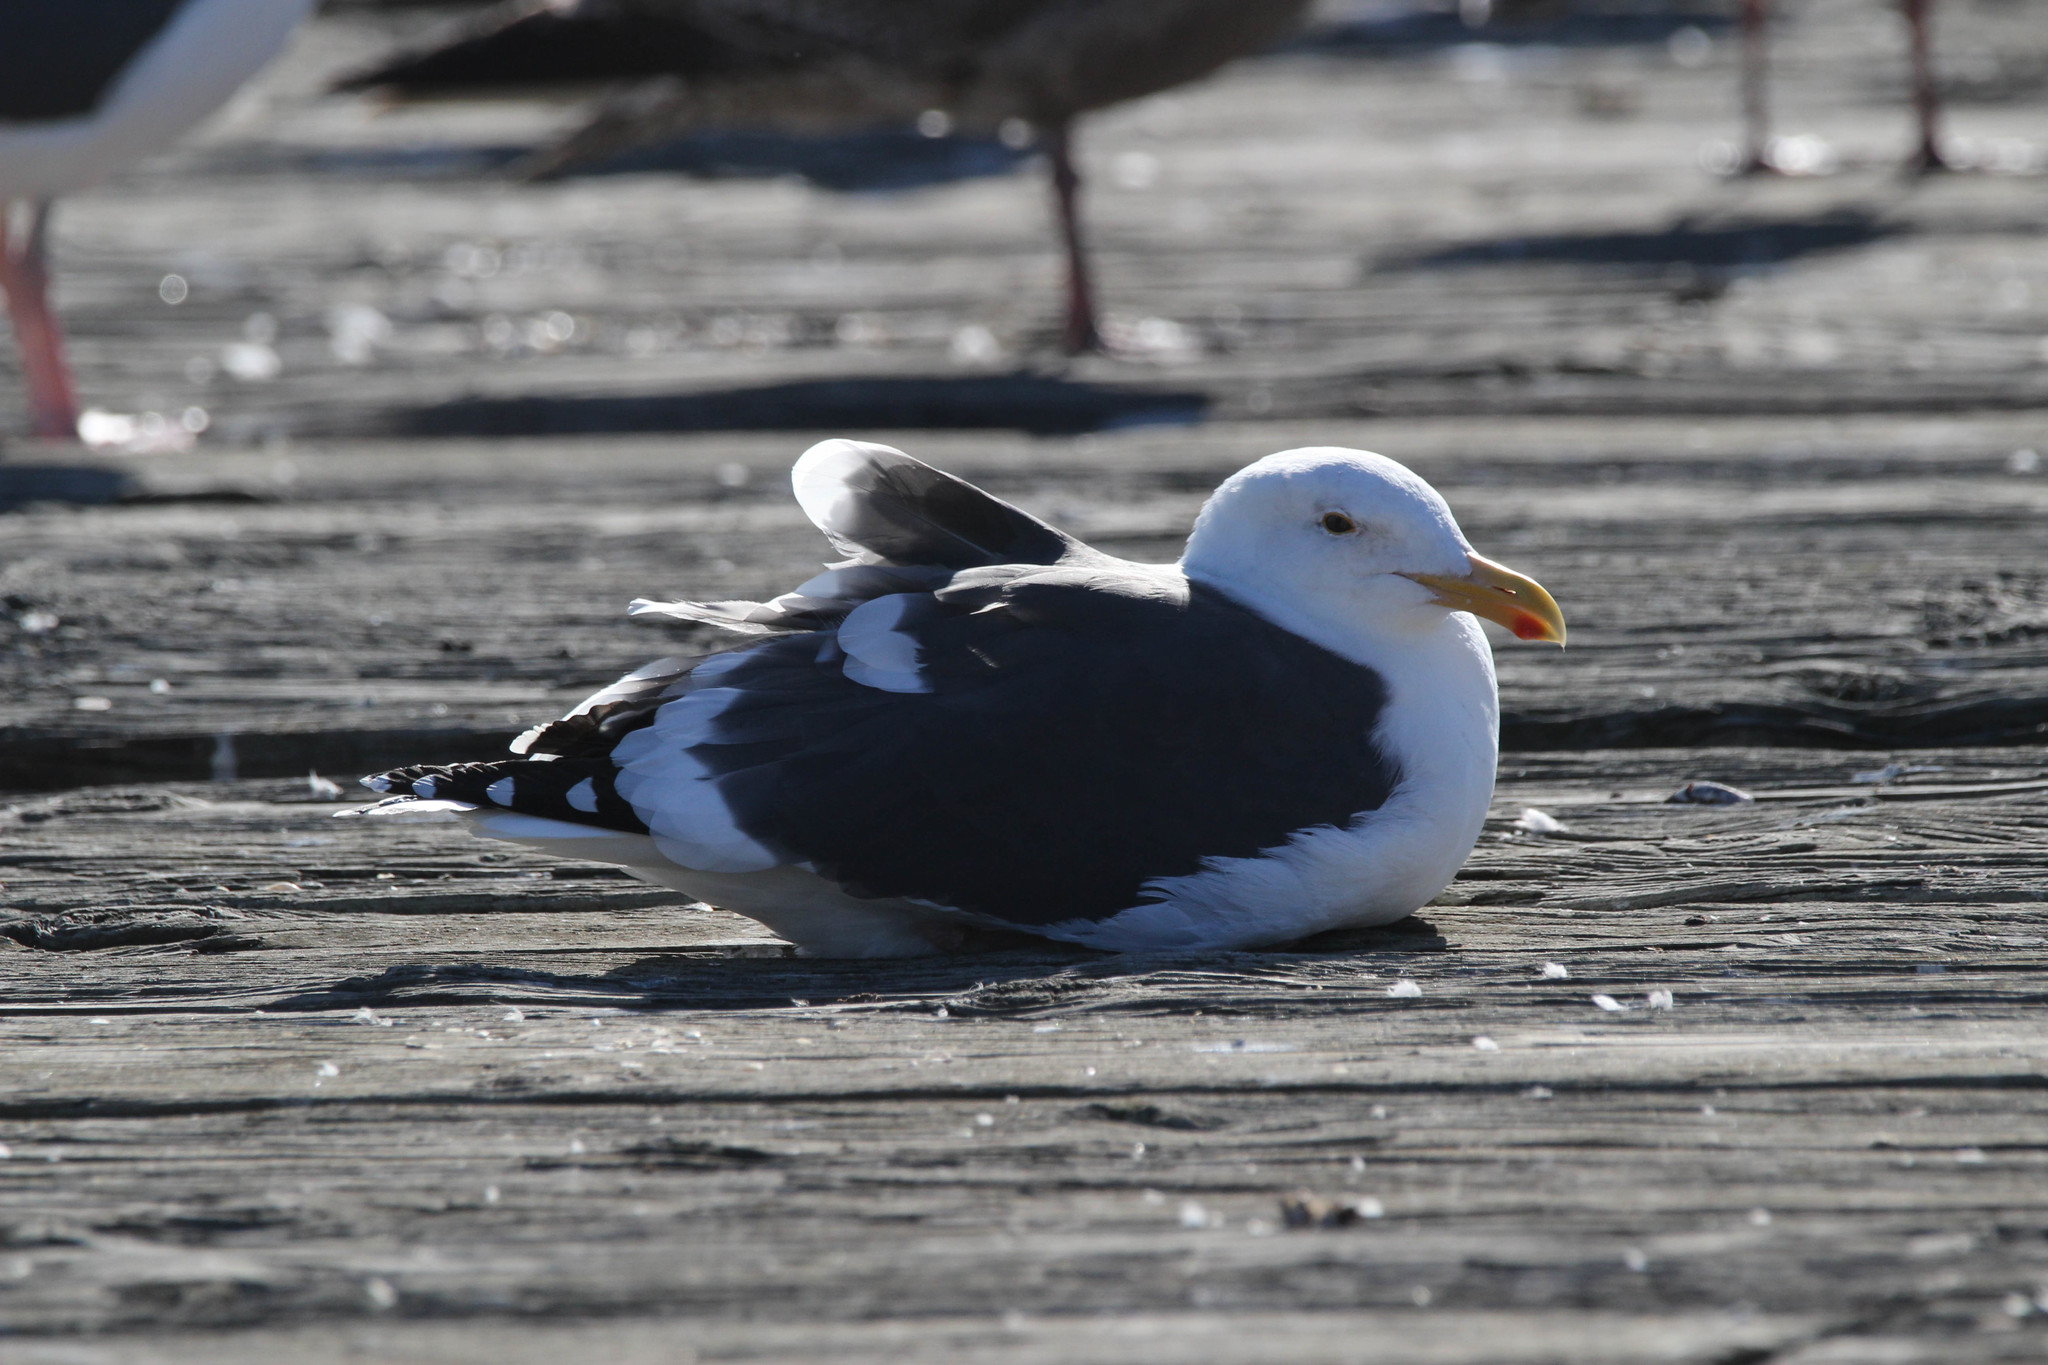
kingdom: Animalia
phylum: Chordata
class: Aves
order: Charadriiformes
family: Laridae
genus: Larus
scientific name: Larus occidentalis
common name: Western gull
